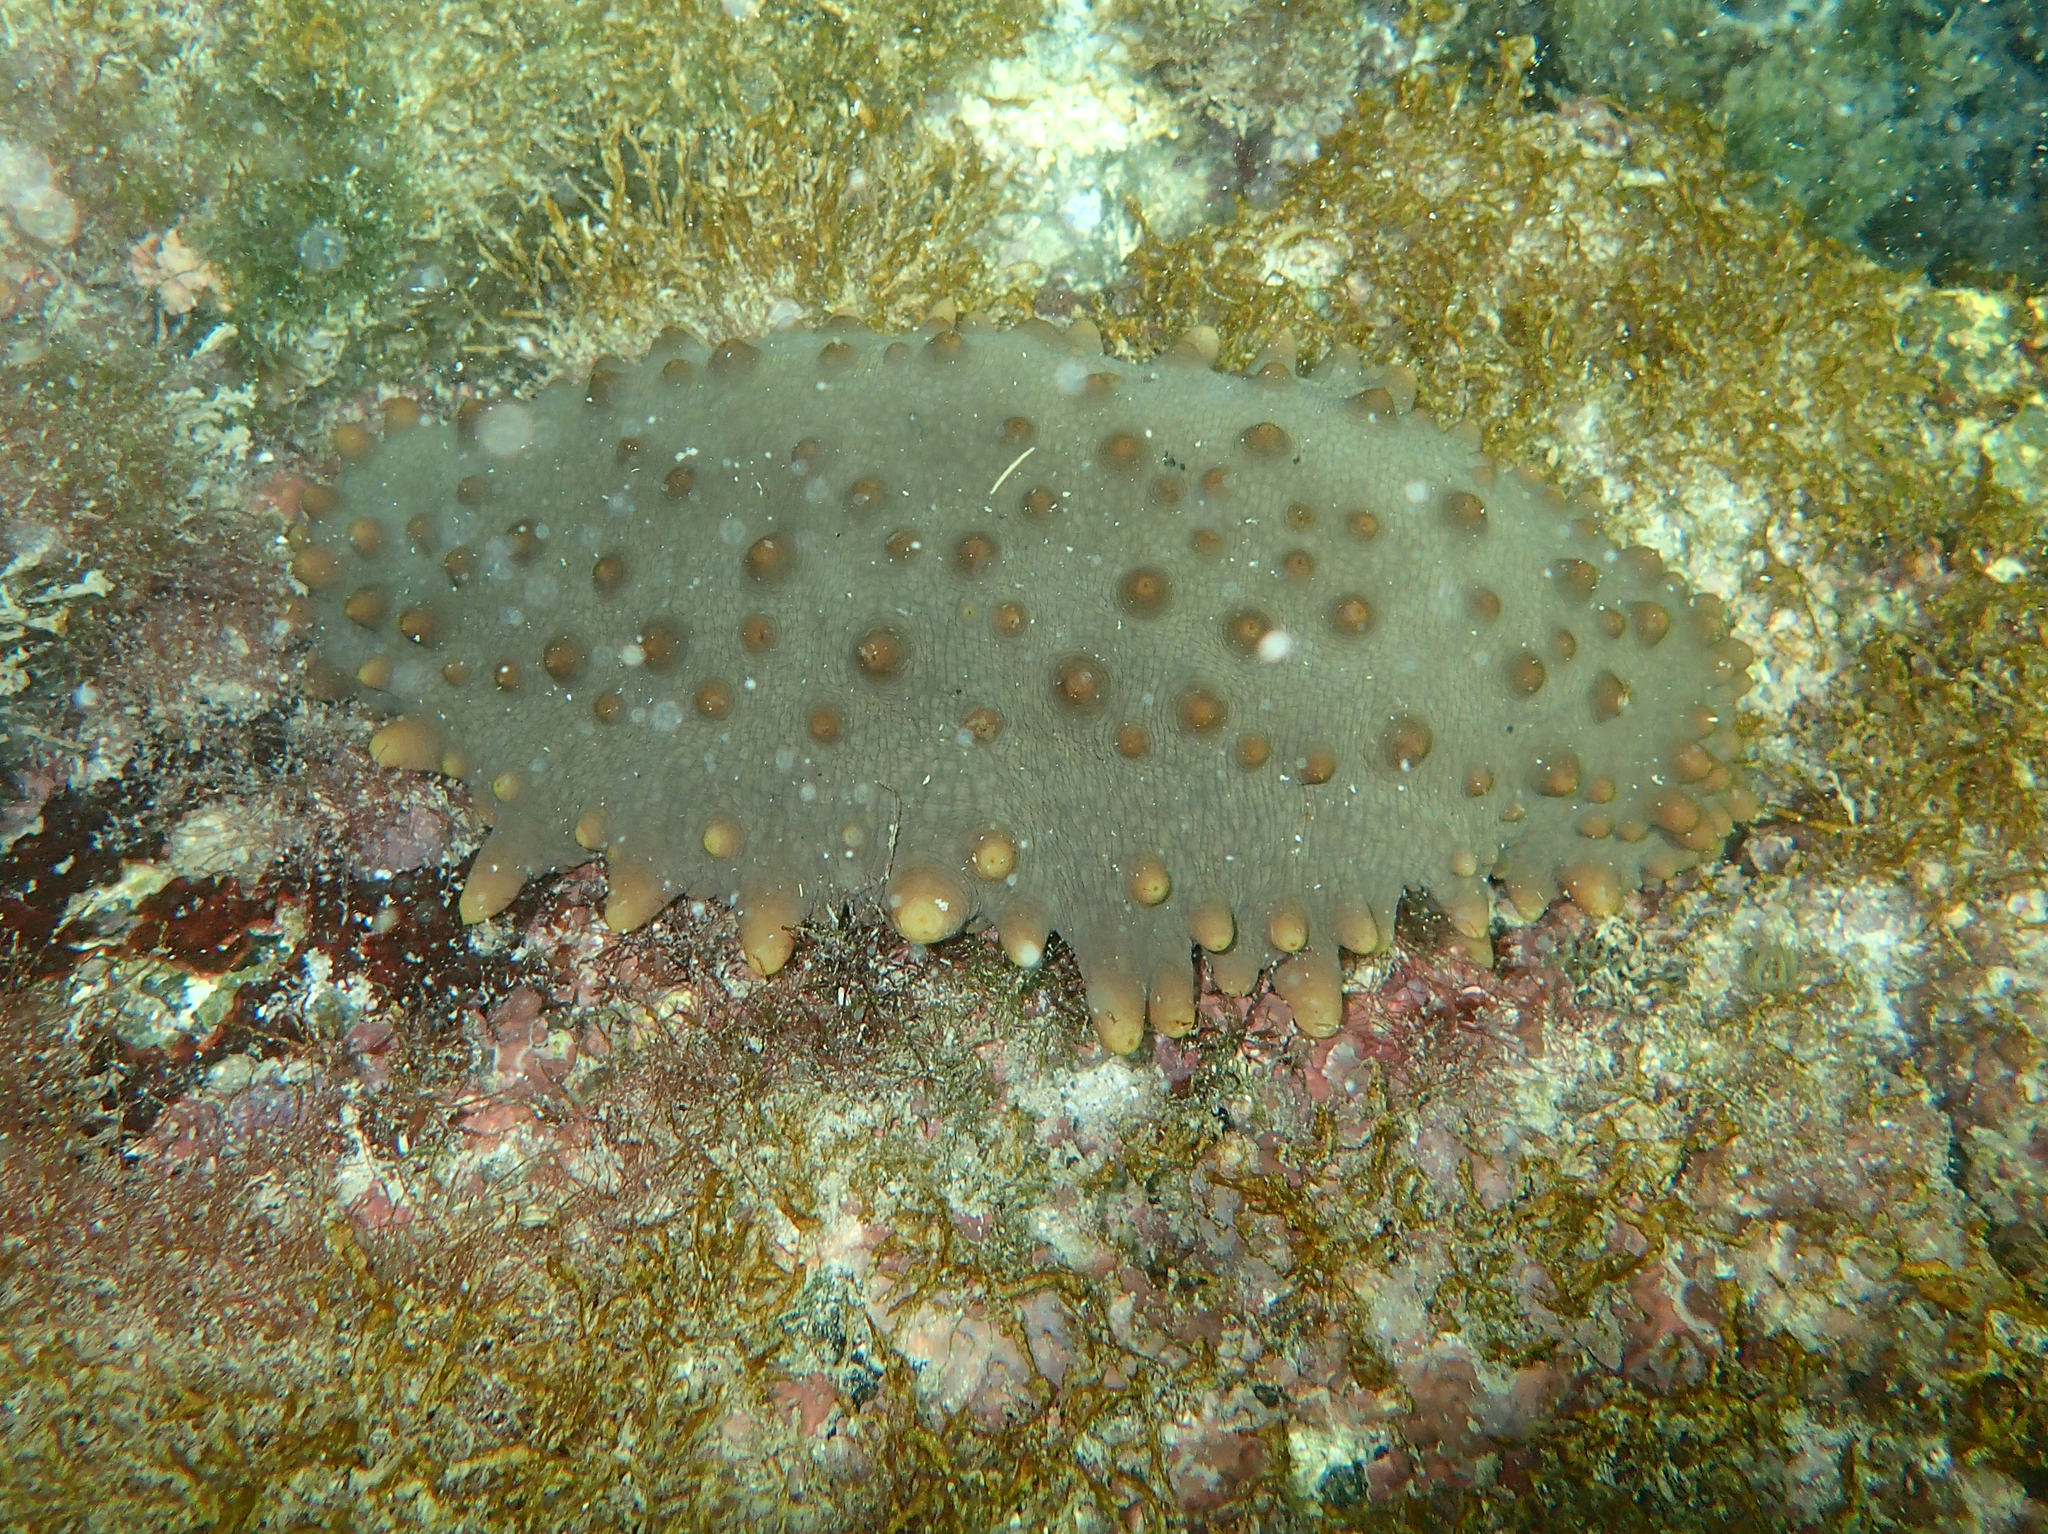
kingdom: Animalia
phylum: Echinodermata
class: Holothuroidea
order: Synallactida
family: Stichopodidae
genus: Isostichopus
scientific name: Isostichopus fuscus
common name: Brown sea cucumber
